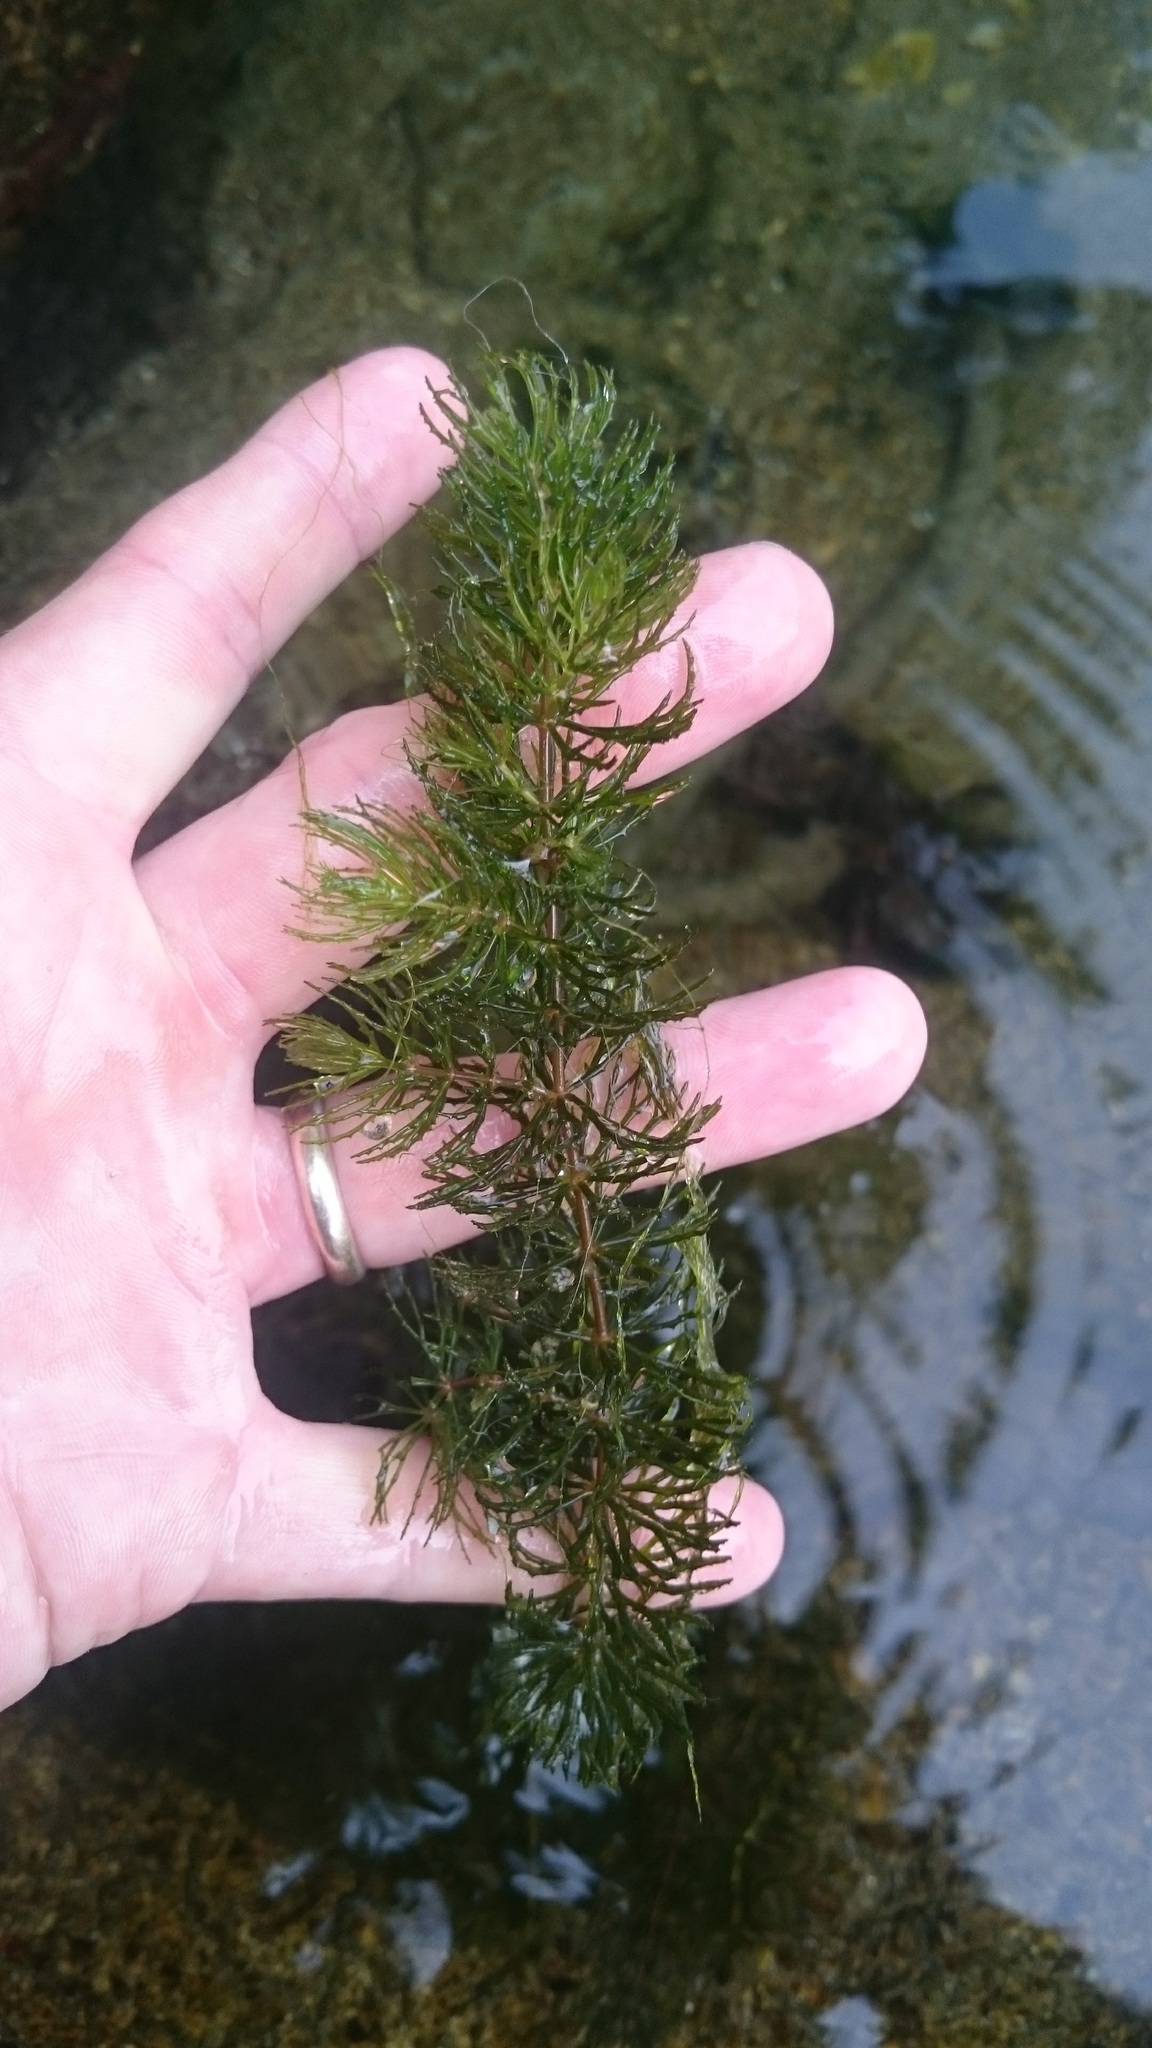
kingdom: Plantae
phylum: Tracheophyta
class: Magnoliopsida
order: Ceratophyllales
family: Ceratophyllaceae
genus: Ceratophyllum
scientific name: Ceratophyllum demersum
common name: Rigid hornwort
